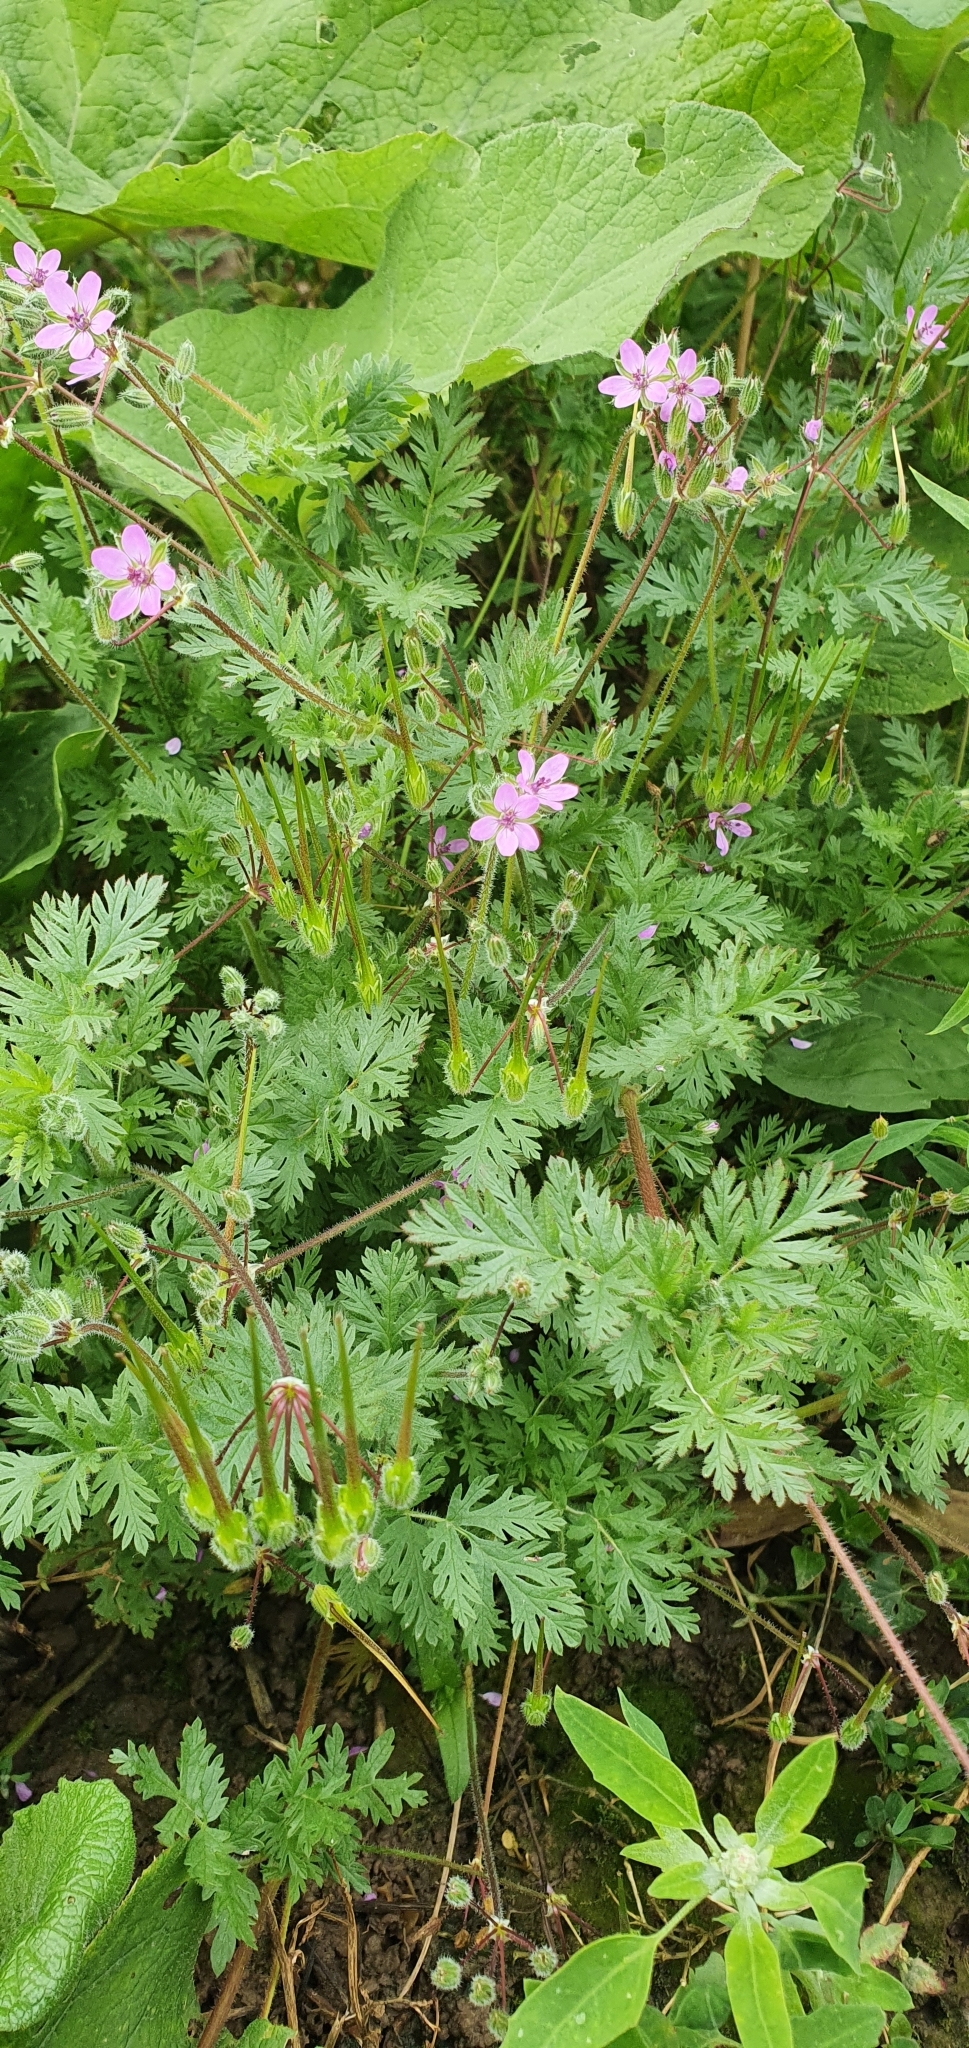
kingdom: Plantae
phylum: Tracheophyta
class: Magnoliopsida
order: Geraniales
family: Geraniaceae
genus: Erodium
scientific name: Erodium cicutarium
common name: Common stork's-bill
